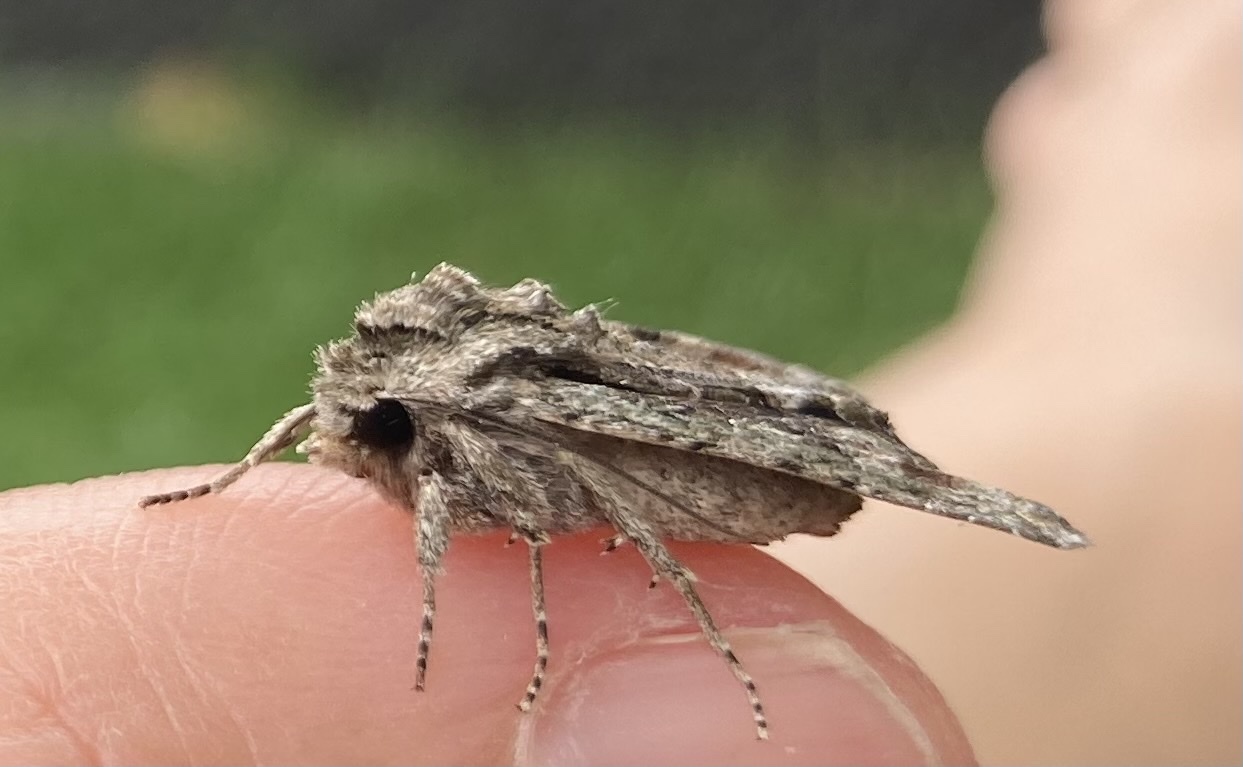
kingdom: Animalia
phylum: Arthropoda
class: Insecta
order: Lepidoptera
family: Noctuidae
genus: Ichneutica
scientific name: Ichneutica mutans
